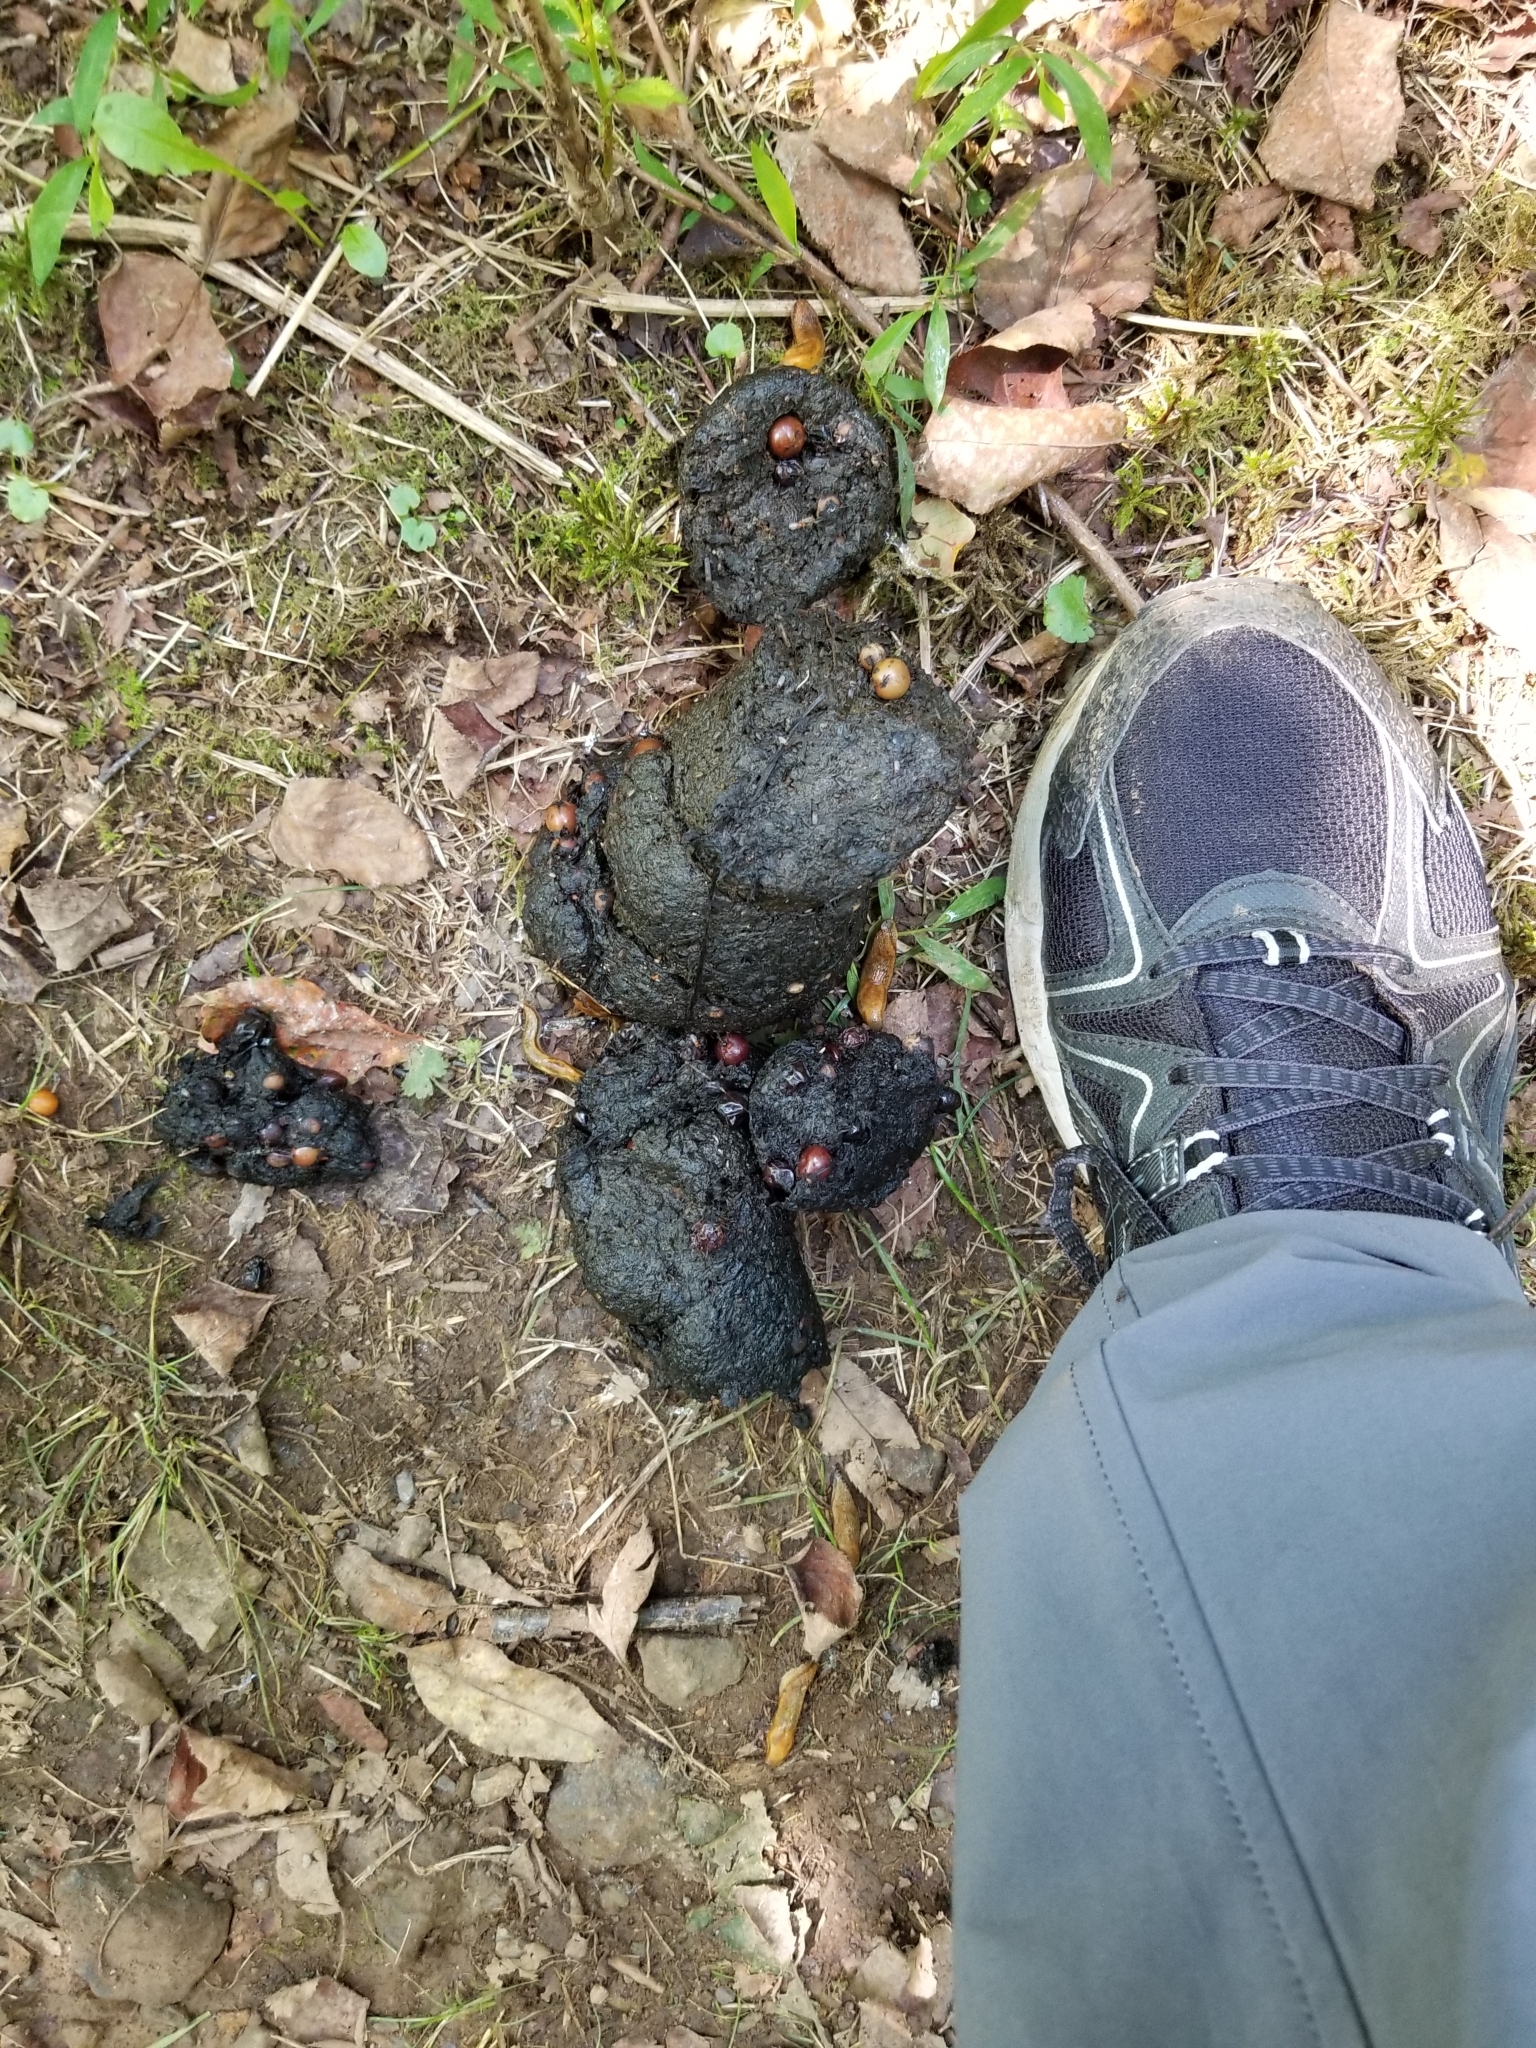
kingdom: Animalia
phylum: Chordata
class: Mammalia
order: Carnivora
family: Ursidae
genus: Ursus
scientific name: Ursus americanus
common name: American black bear
